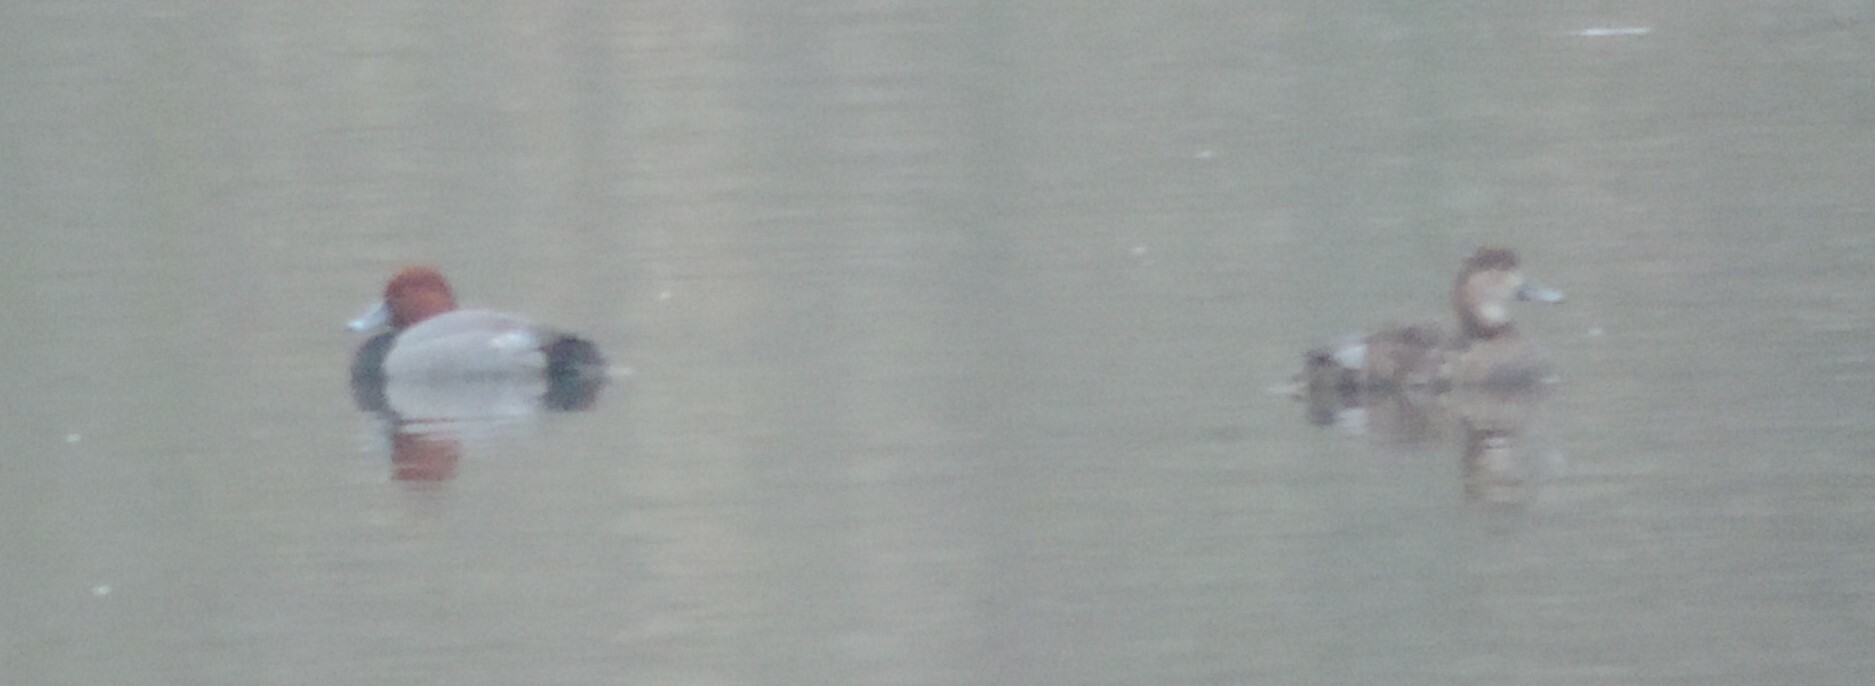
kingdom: Animalia
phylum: Chordata
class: Aves
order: Anseriformes
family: Anatidae
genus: Aythya
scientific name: Aythya americana
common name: Redhead
